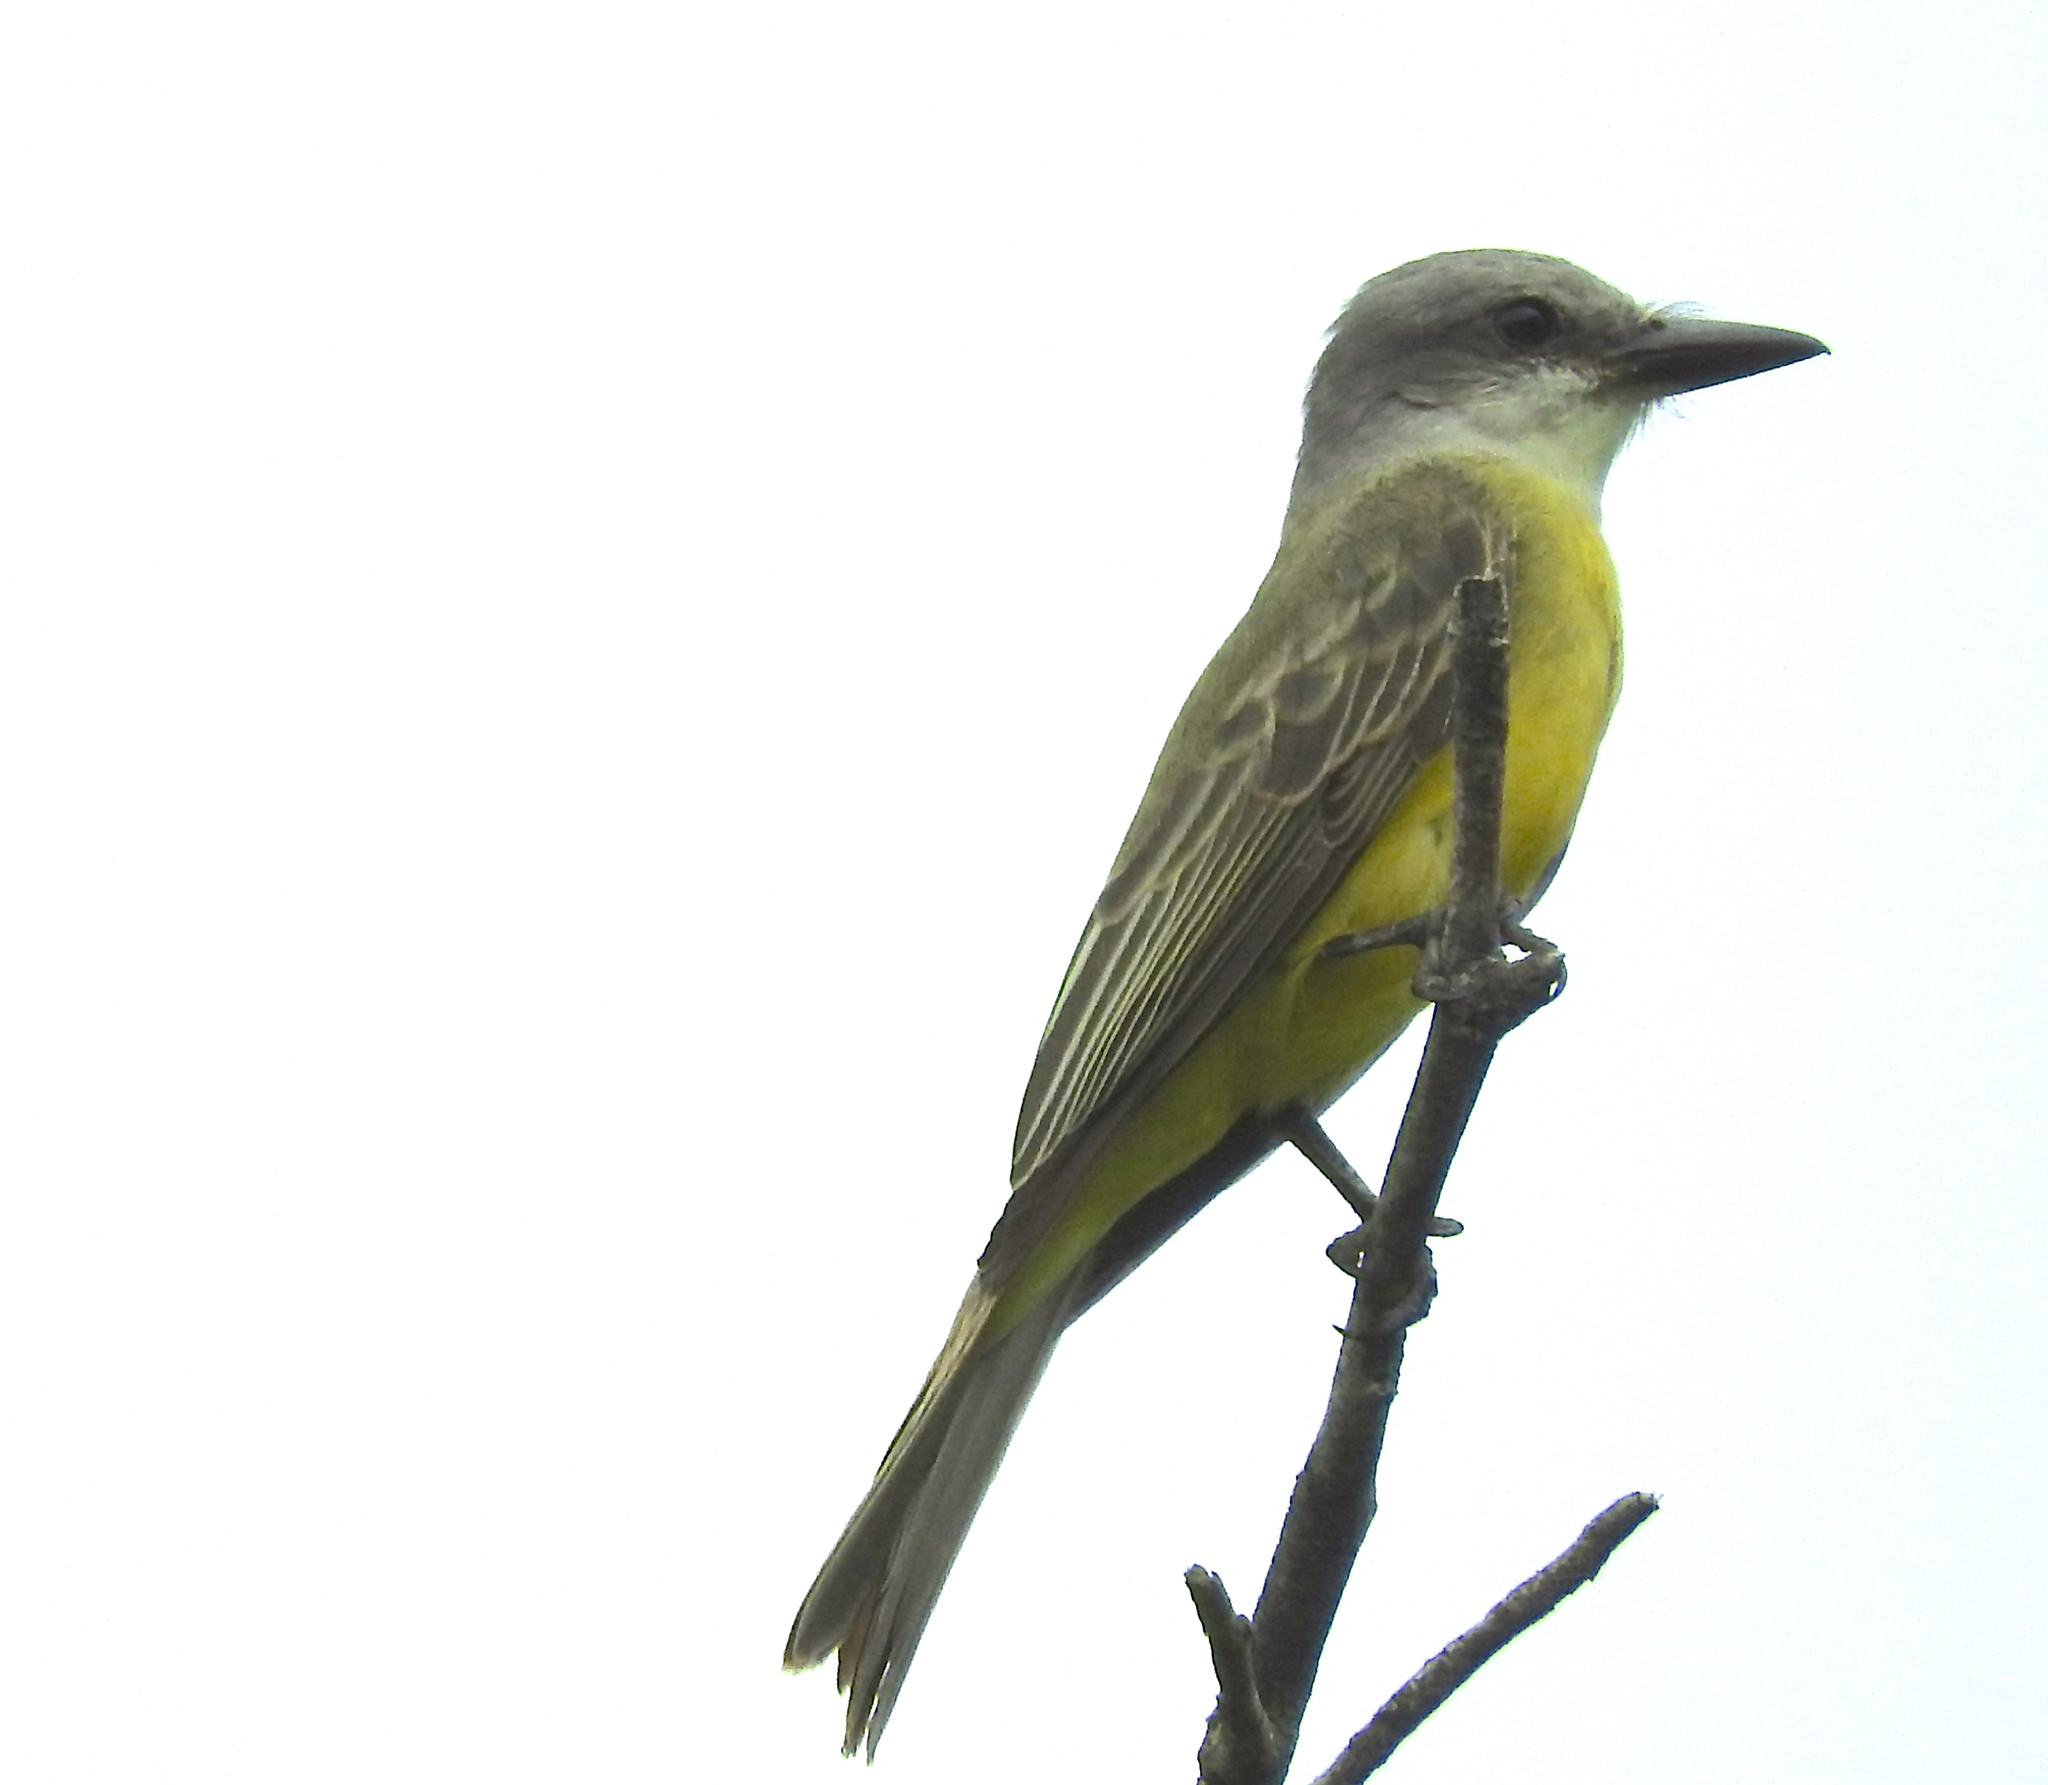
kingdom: Animalia
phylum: Chordata
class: Aves
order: Passeriformes
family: Tyrannidae
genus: Tyrannus
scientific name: Tyrannus melancholicus
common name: Tropical kingbird
